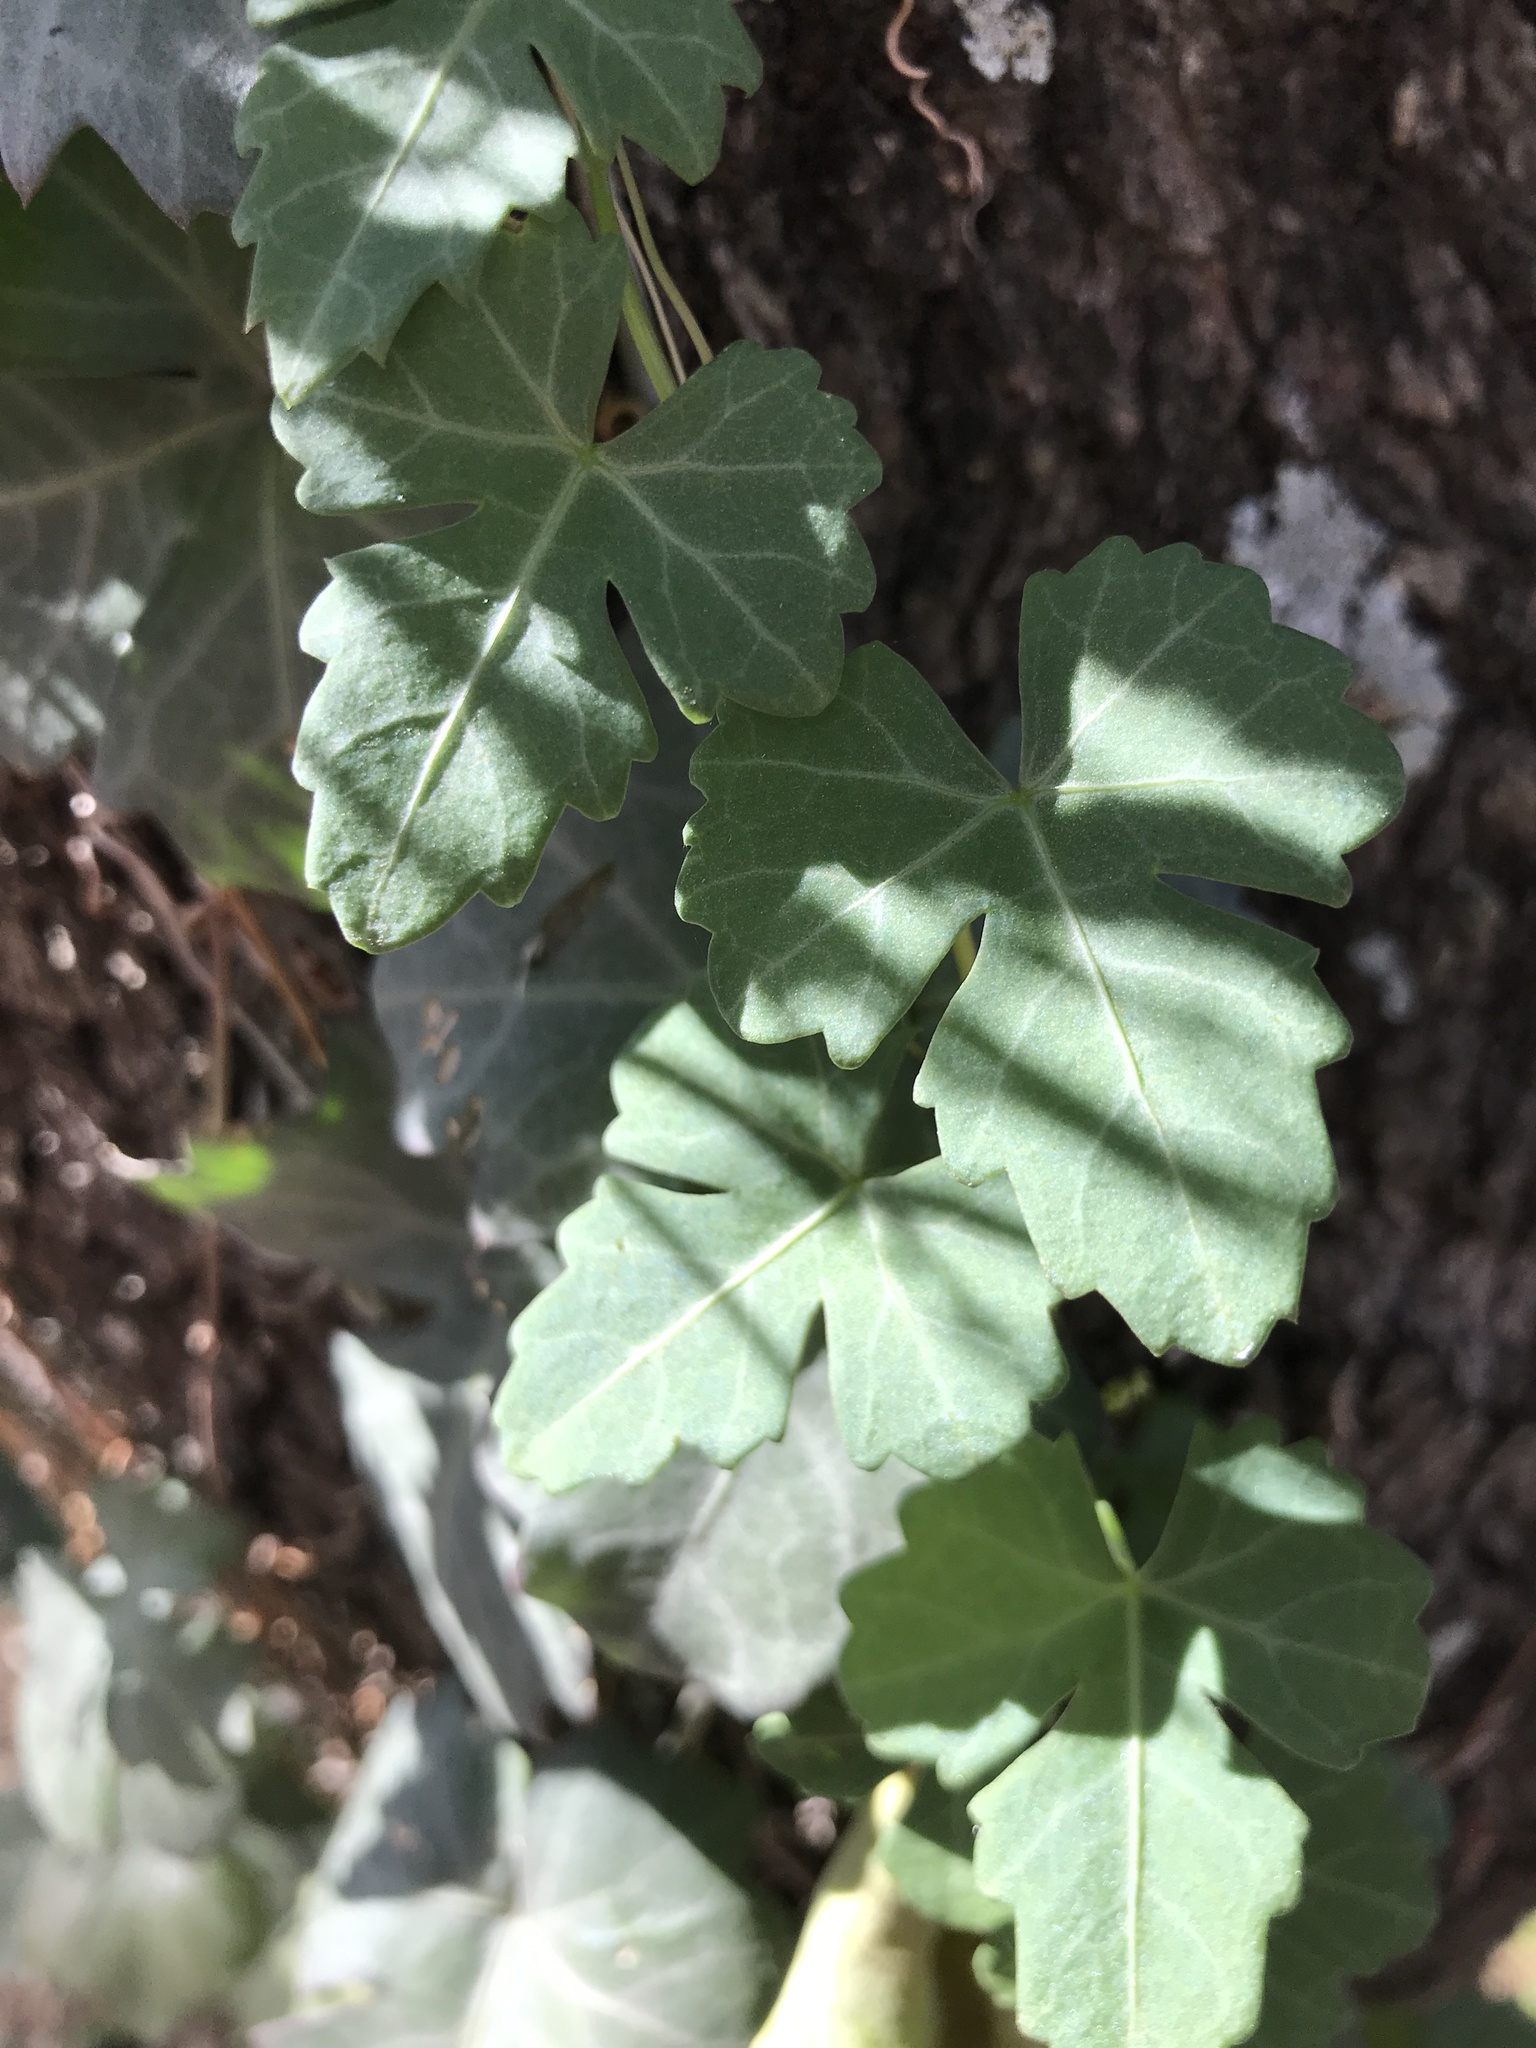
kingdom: Plantae
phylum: Tracheophyta
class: Magnoliopsida
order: Vitales
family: Vitaceae
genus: Cissus
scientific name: Cissus trifoliata
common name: Vine-sorrel
